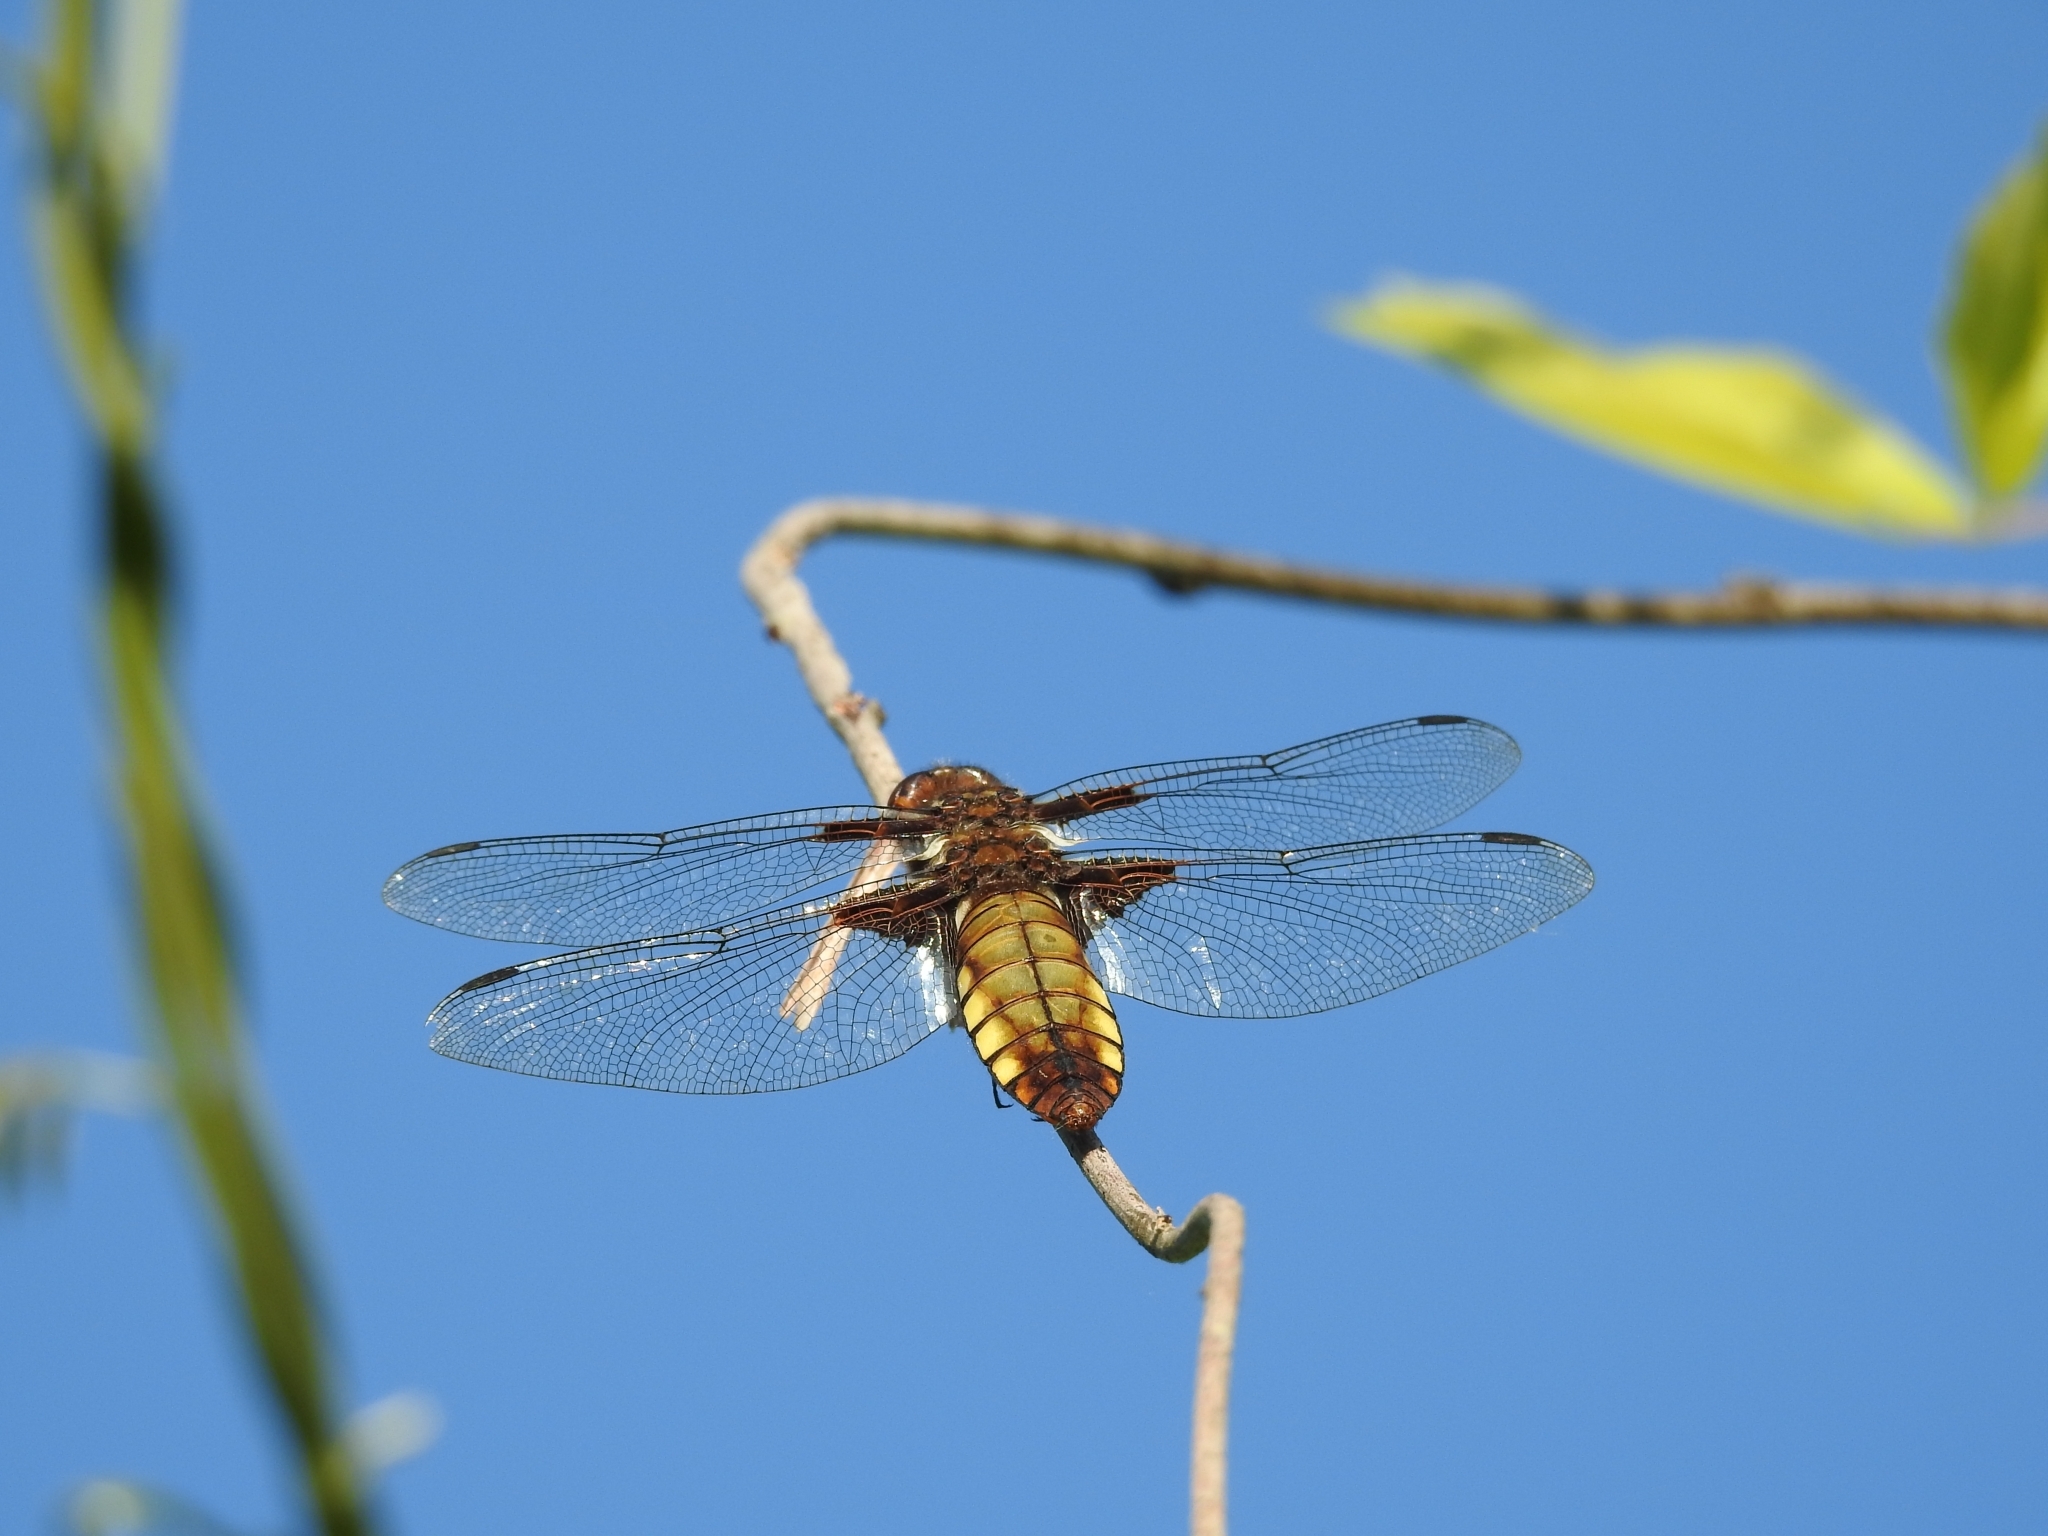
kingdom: Animalia
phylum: Arthropoda
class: Insecta
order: Odonata
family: Libellulidae
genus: Libellula
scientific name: Libellula depressa
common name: Broad-bodied chaser
